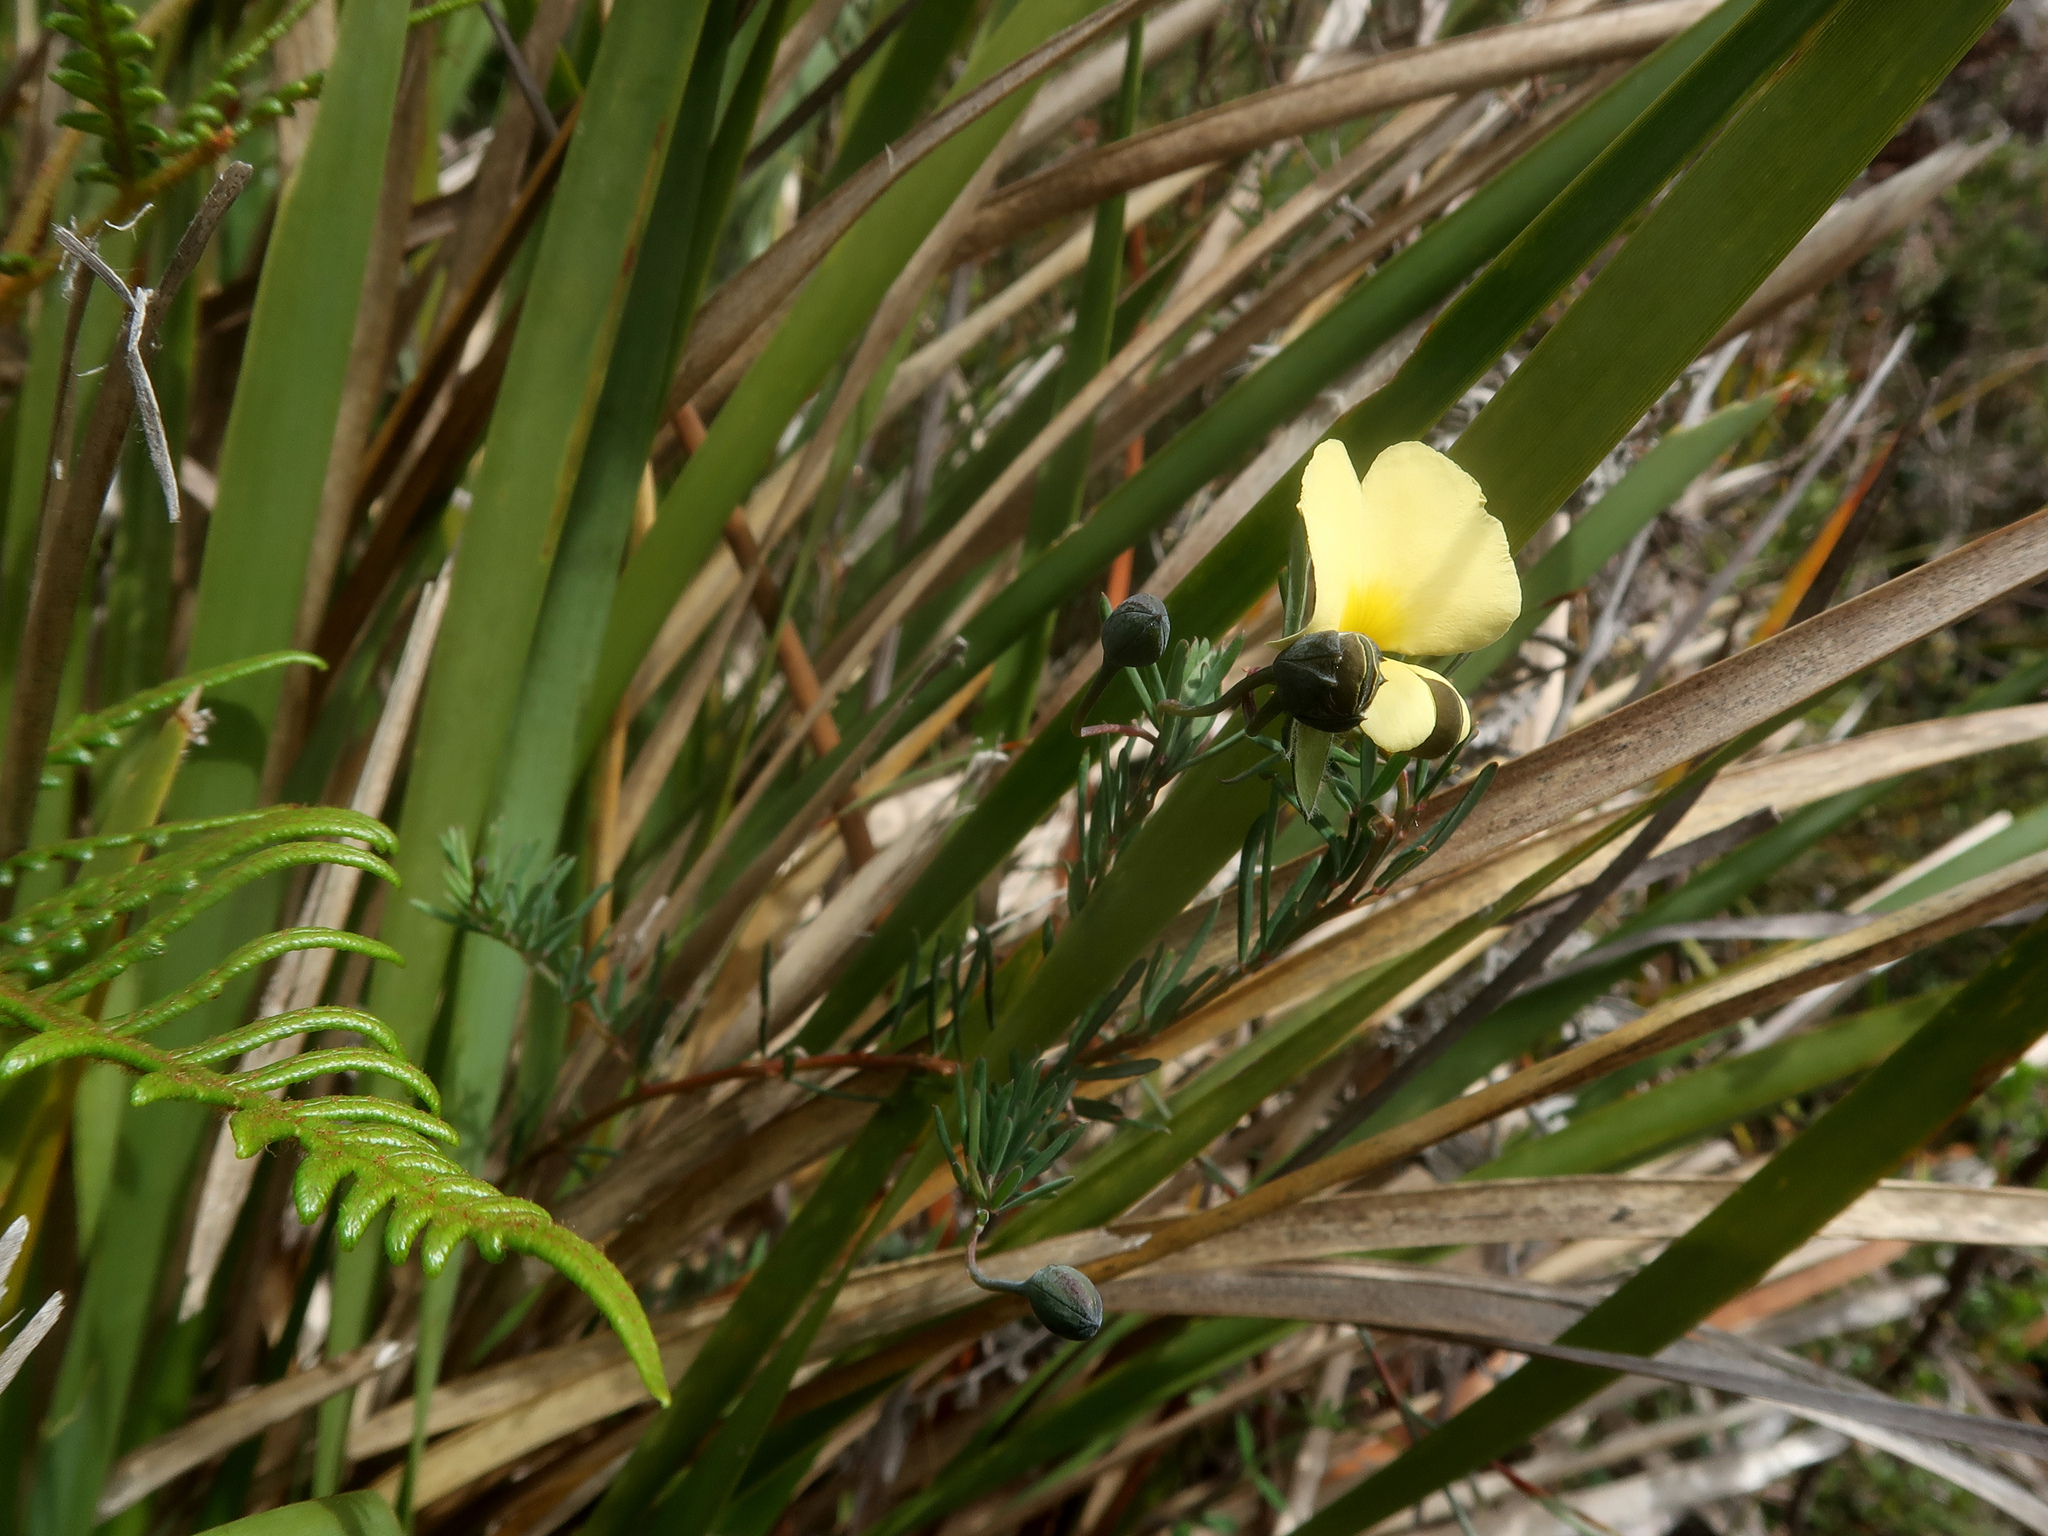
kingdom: Plantae
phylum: Tracheophyta
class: Magnoliopsida
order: Fabales
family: Fabaceae
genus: Gompholobium
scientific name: Gompholobium huegelii
